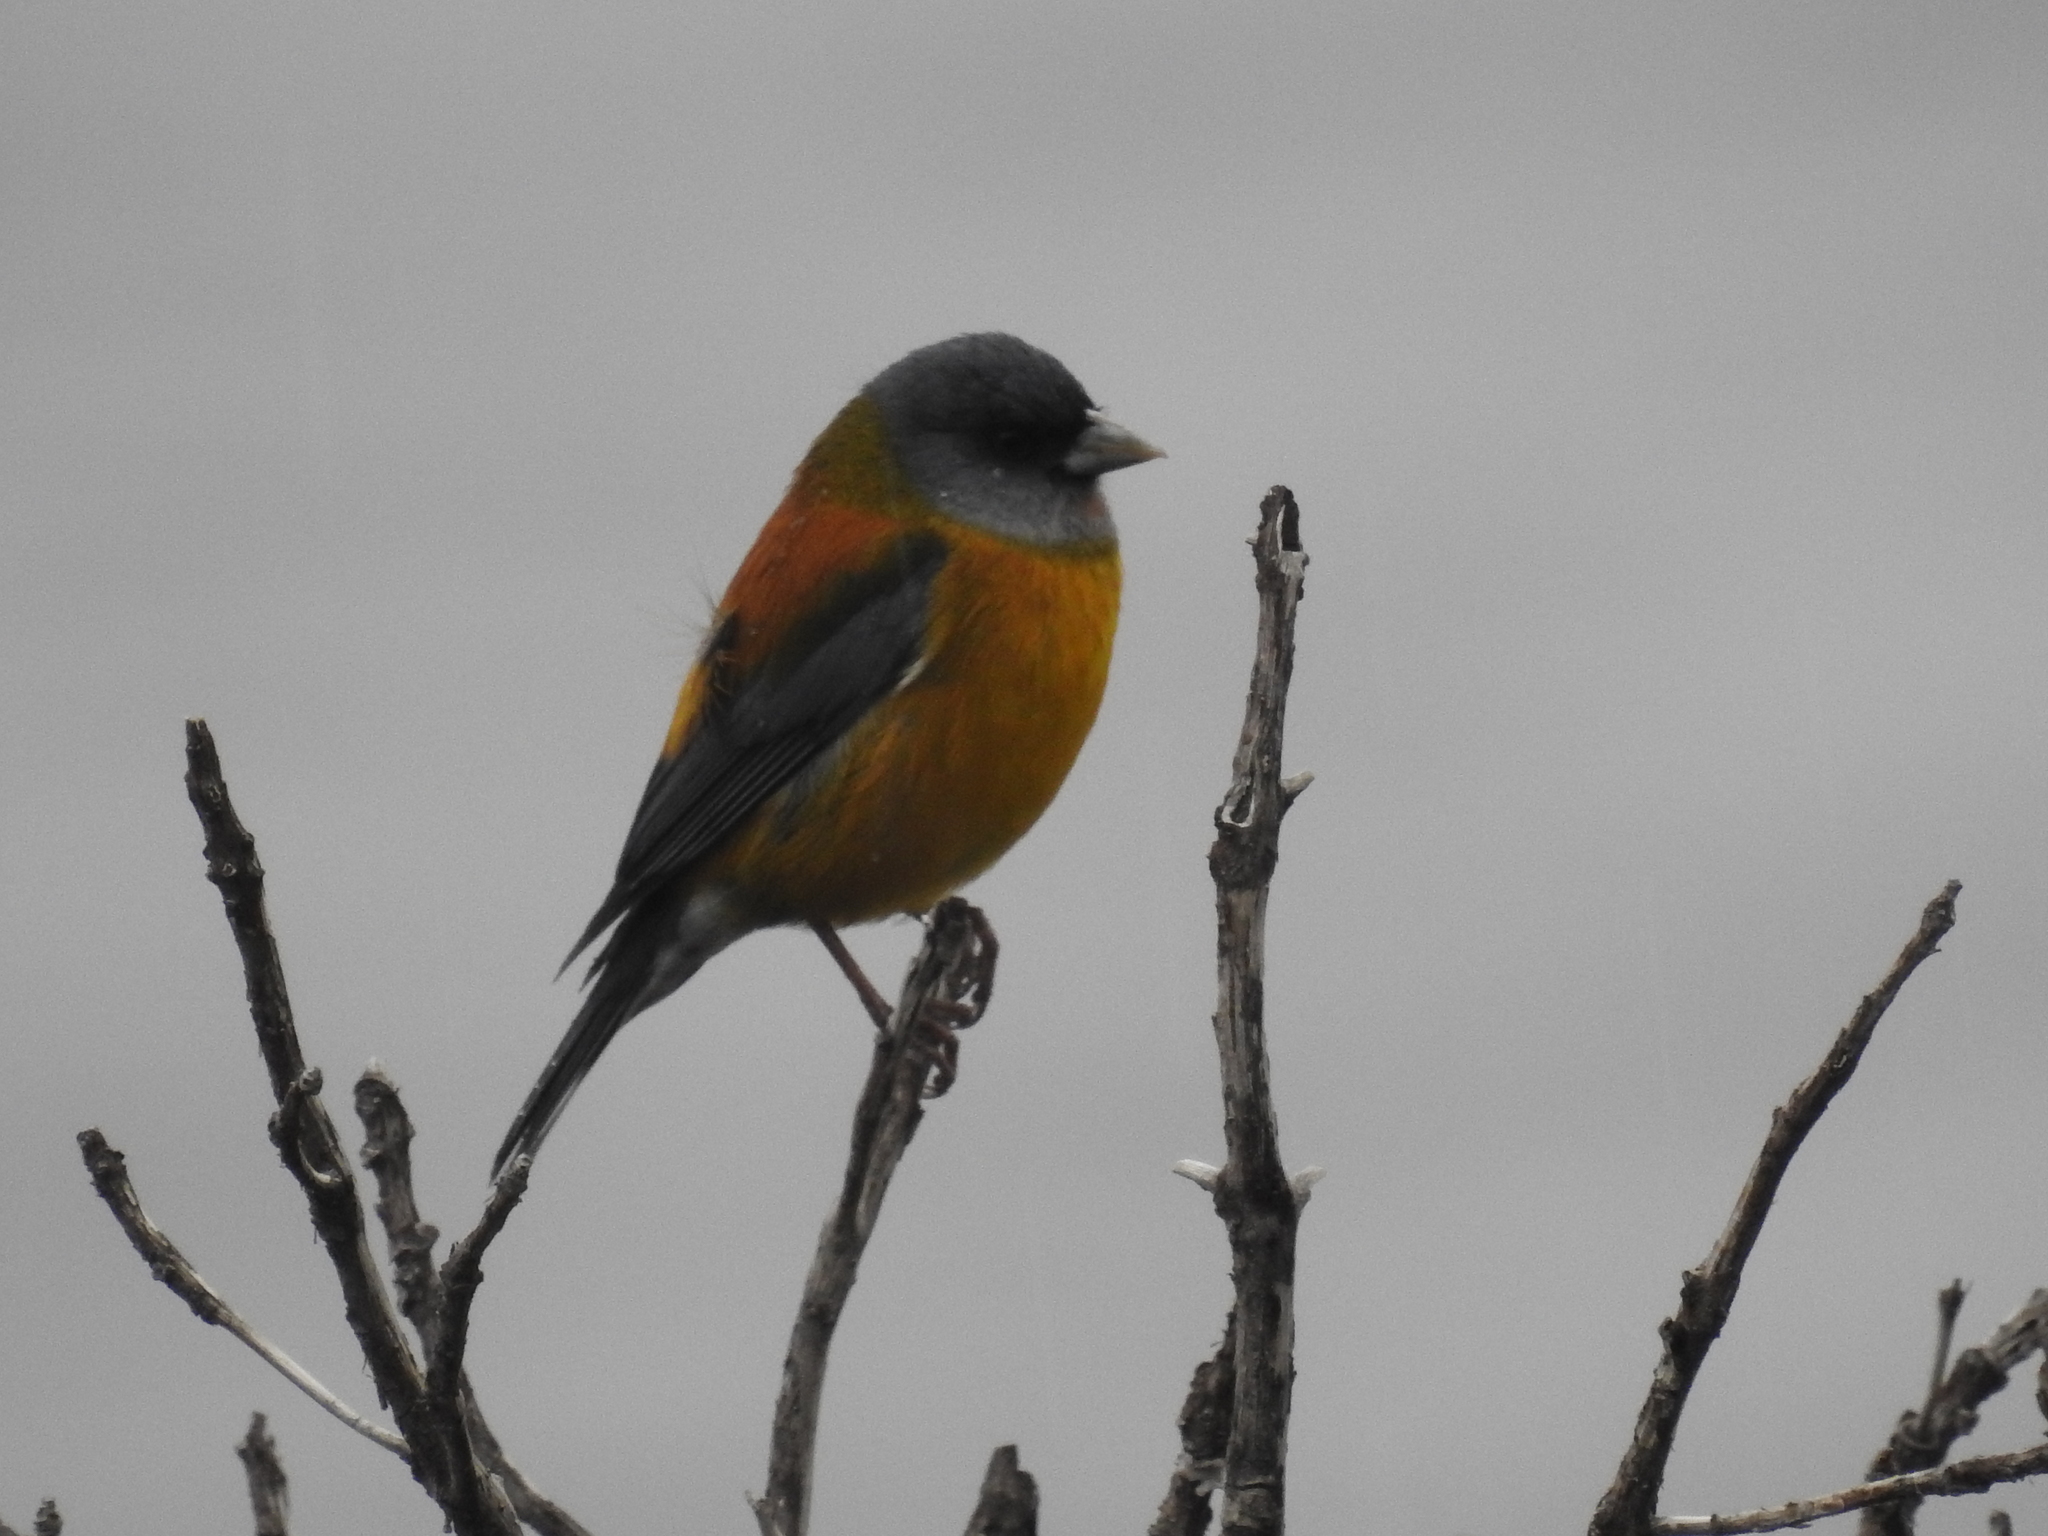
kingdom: Animalia
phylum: Chordata
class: Aves
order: Passeriformes
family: Thraupidae
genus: Phrygilus
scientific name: Phrygilus patagonicus
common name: Patagonian sierra finch
